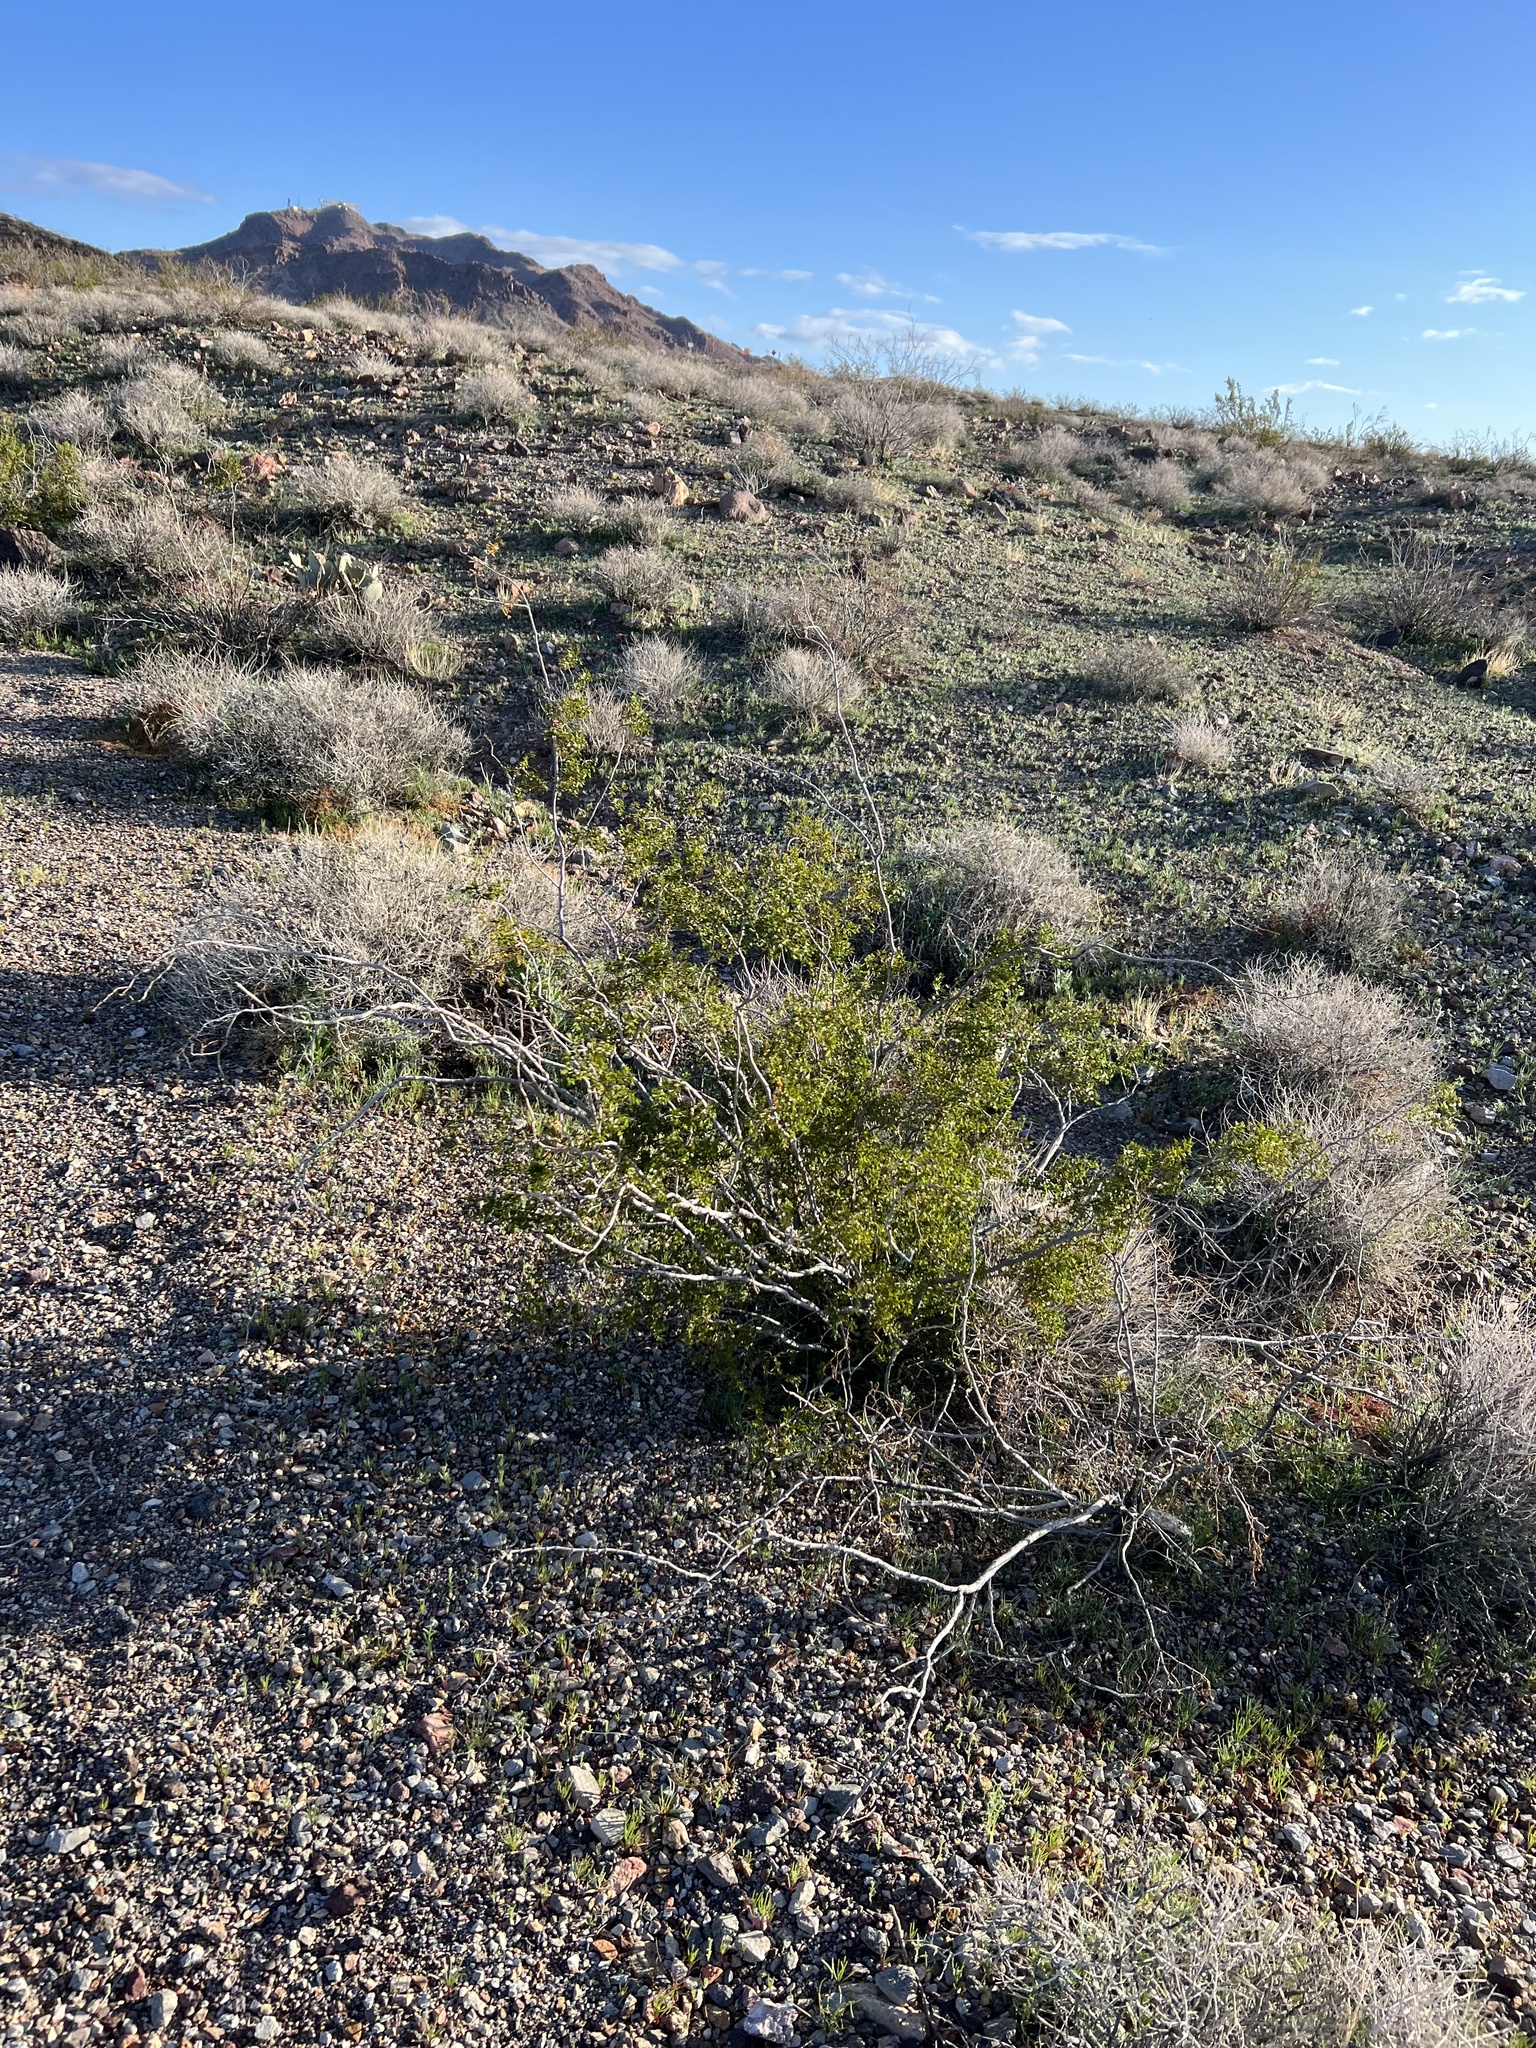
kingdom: Plantae
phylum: Tracheophyta
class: Magnoliopsida
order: Zygophyllales
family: Zygophyllaceae
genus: Larrea
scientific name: Larrea tridentata
